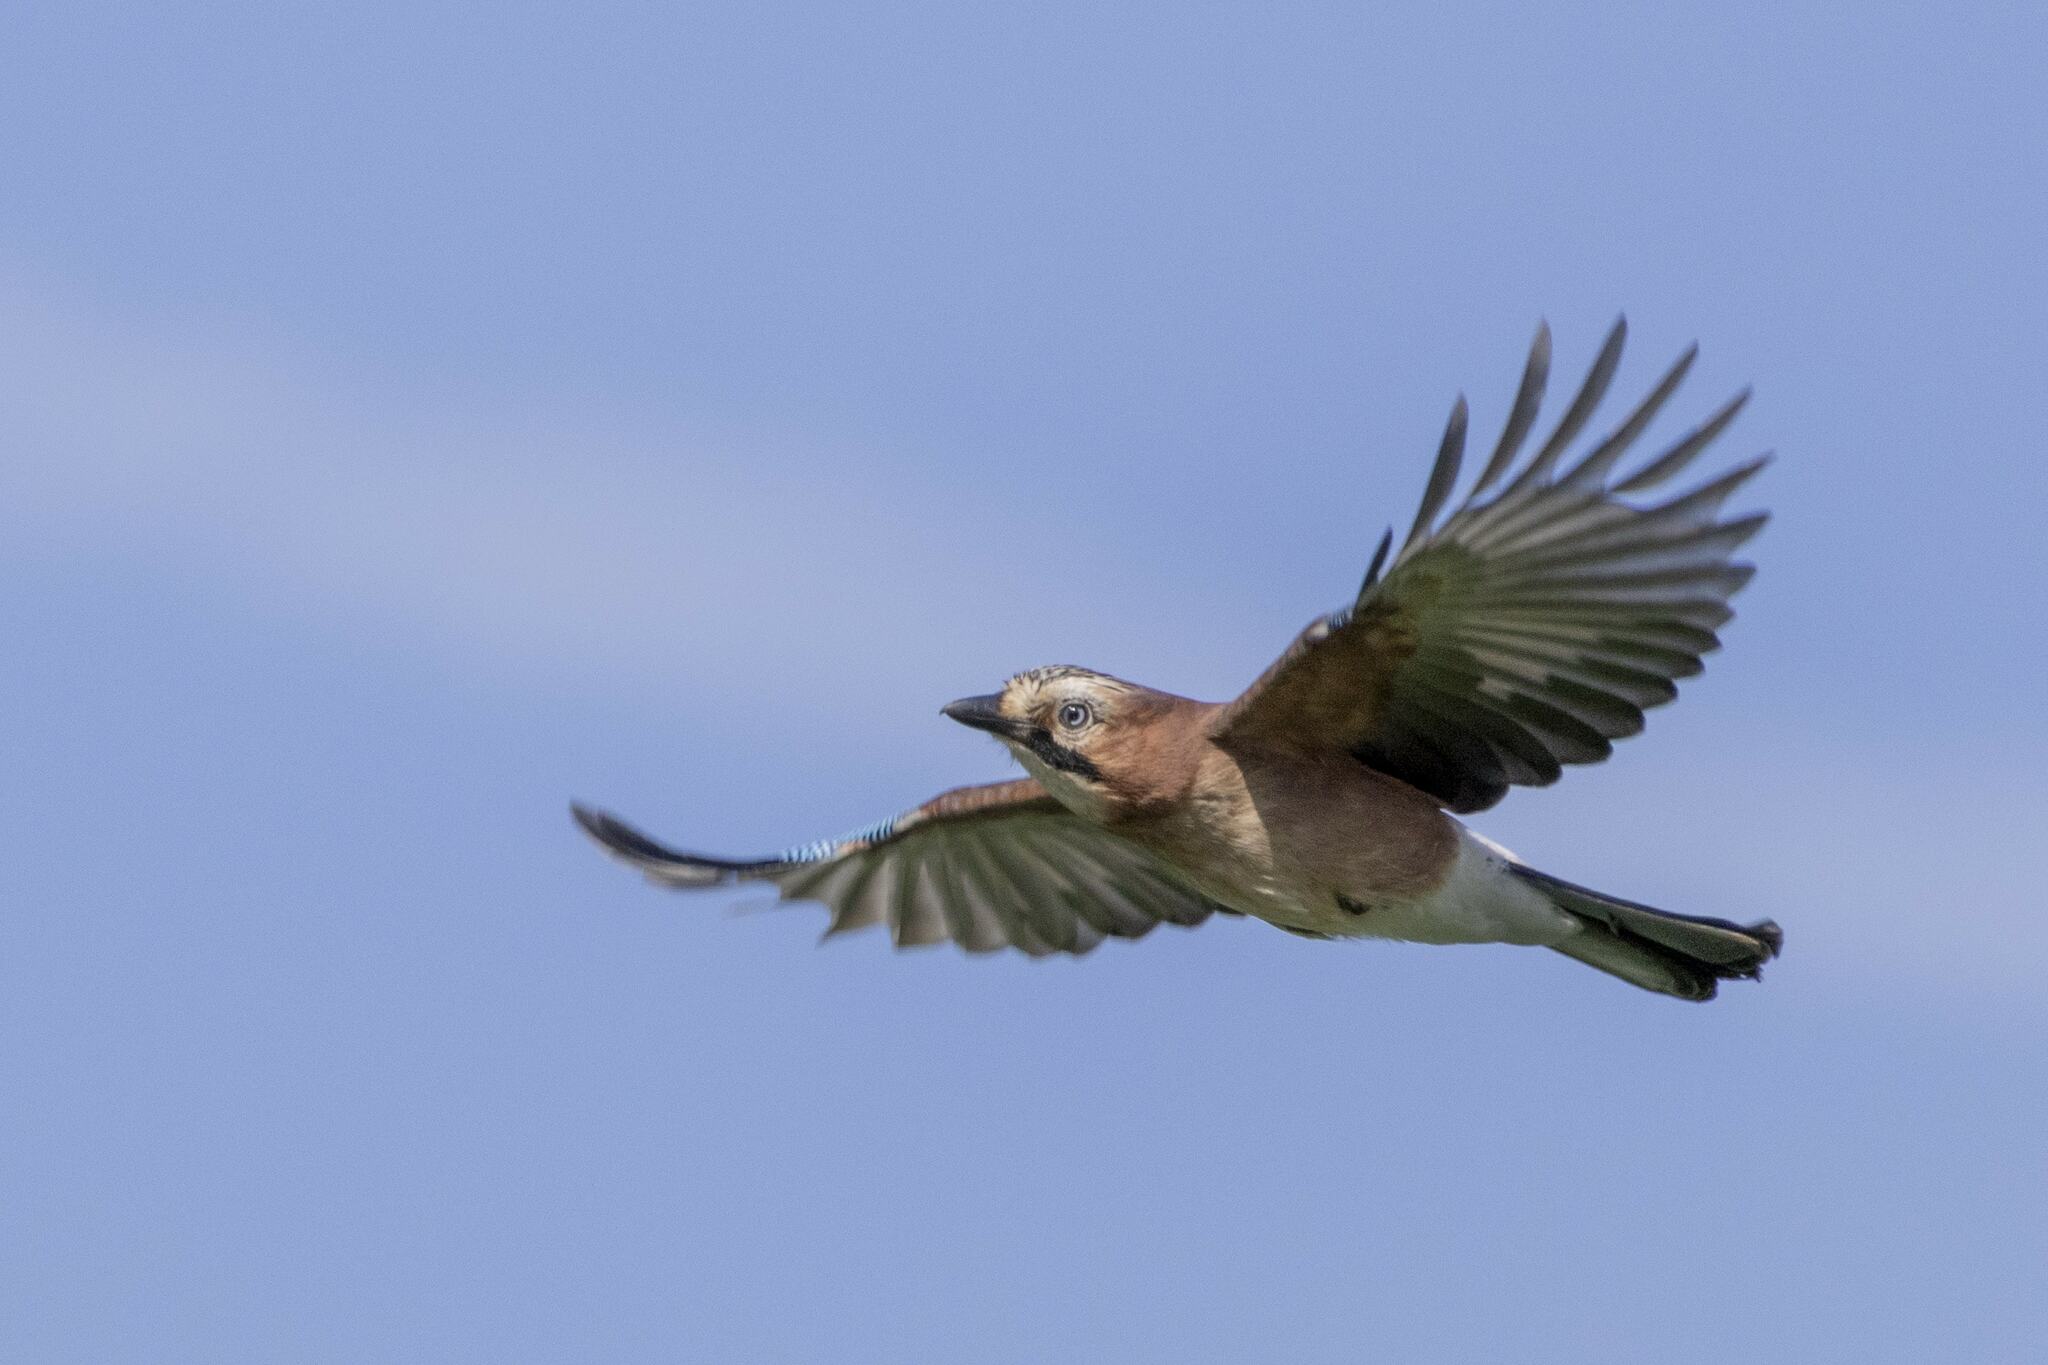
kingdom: Animalia
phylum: Chordata
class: Aves
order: Passeriformes
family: Corvidae
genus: Garrulus
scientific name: Garrulus glandarius
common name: Eurasian jay
